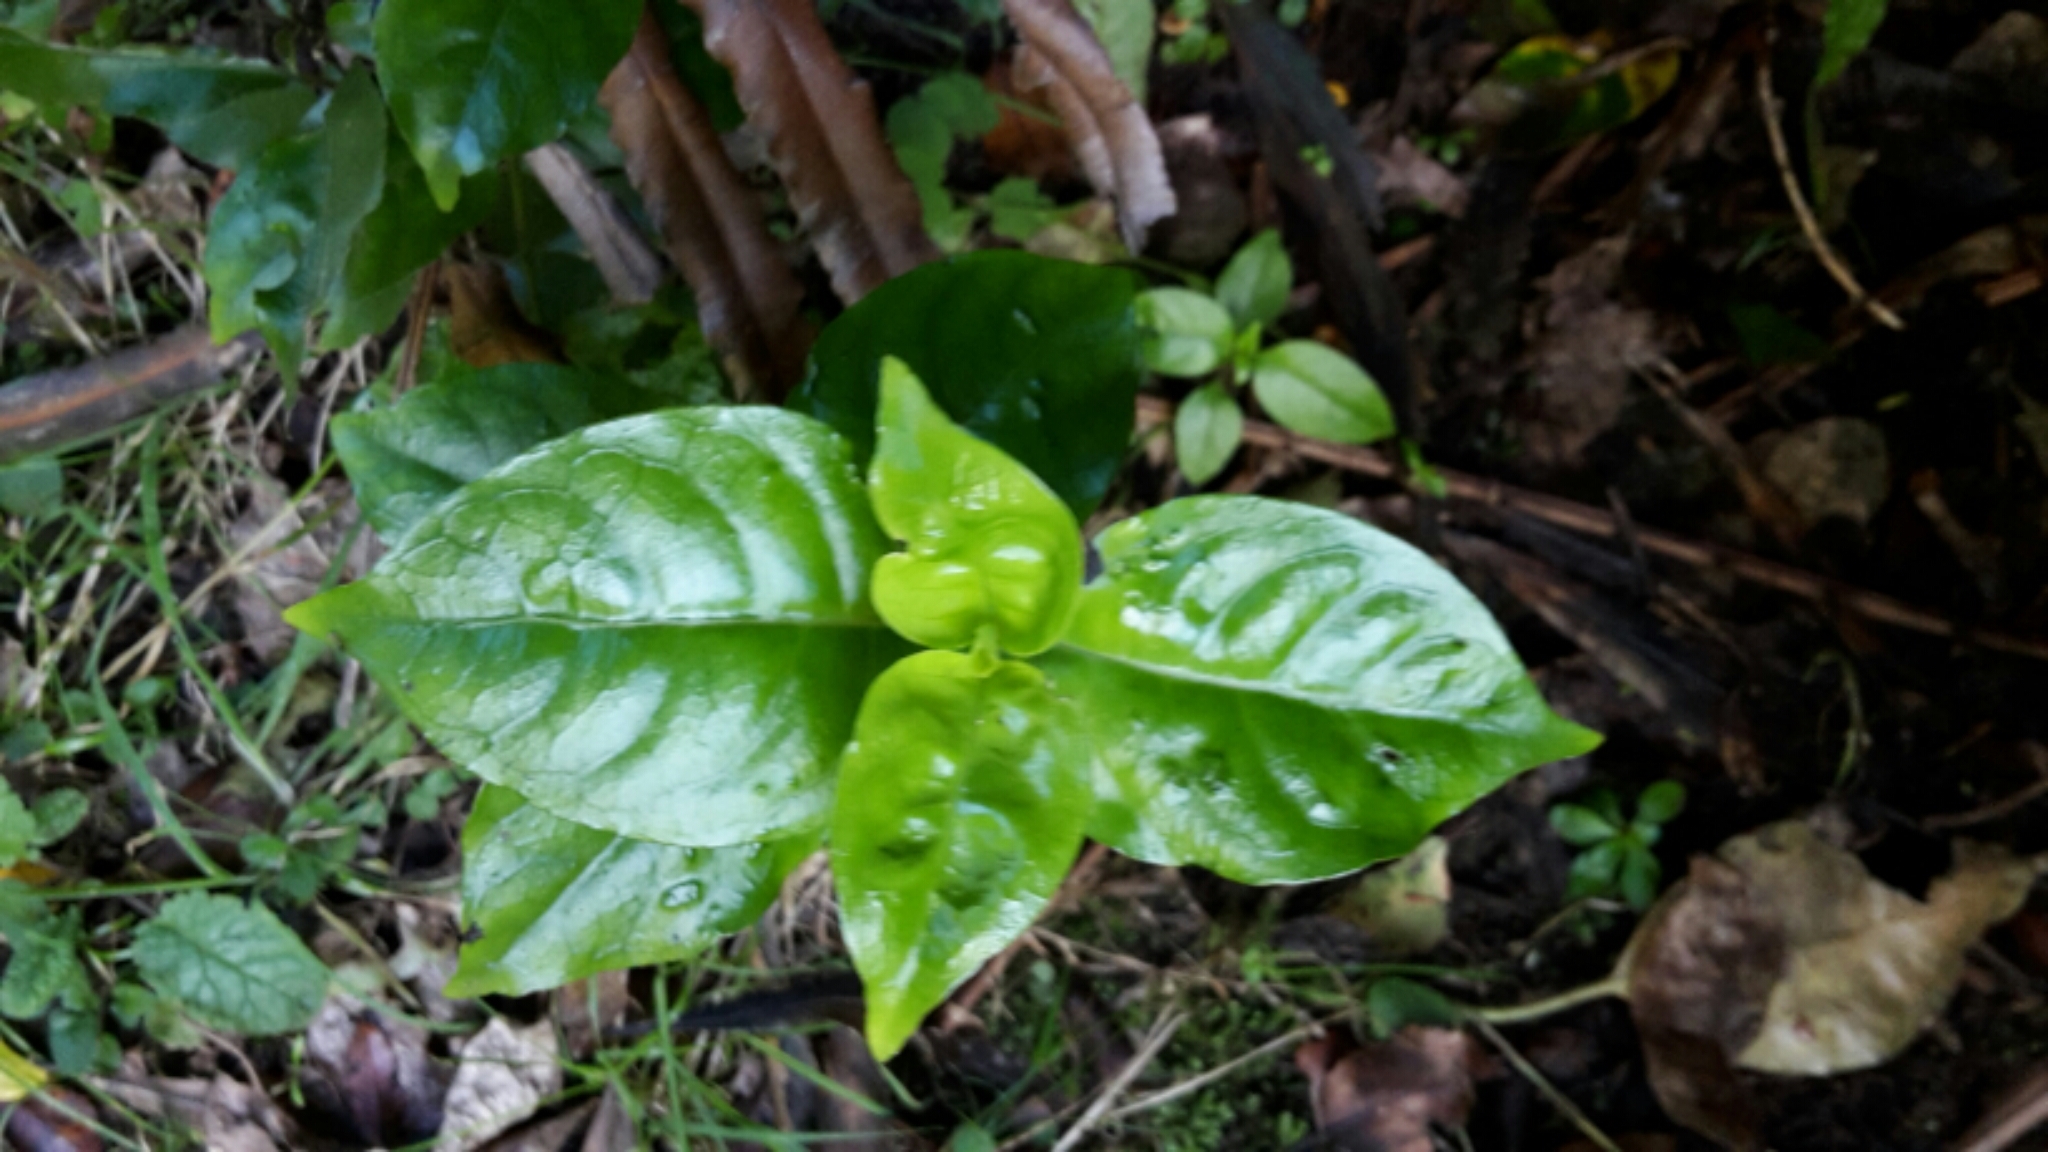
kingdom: Plantae
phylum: Tracheophyta
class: Magnoliopsida
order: Gentianales
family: Loganiaceae
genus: Geniostoma
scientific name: Geniostoma ligustrifolium
